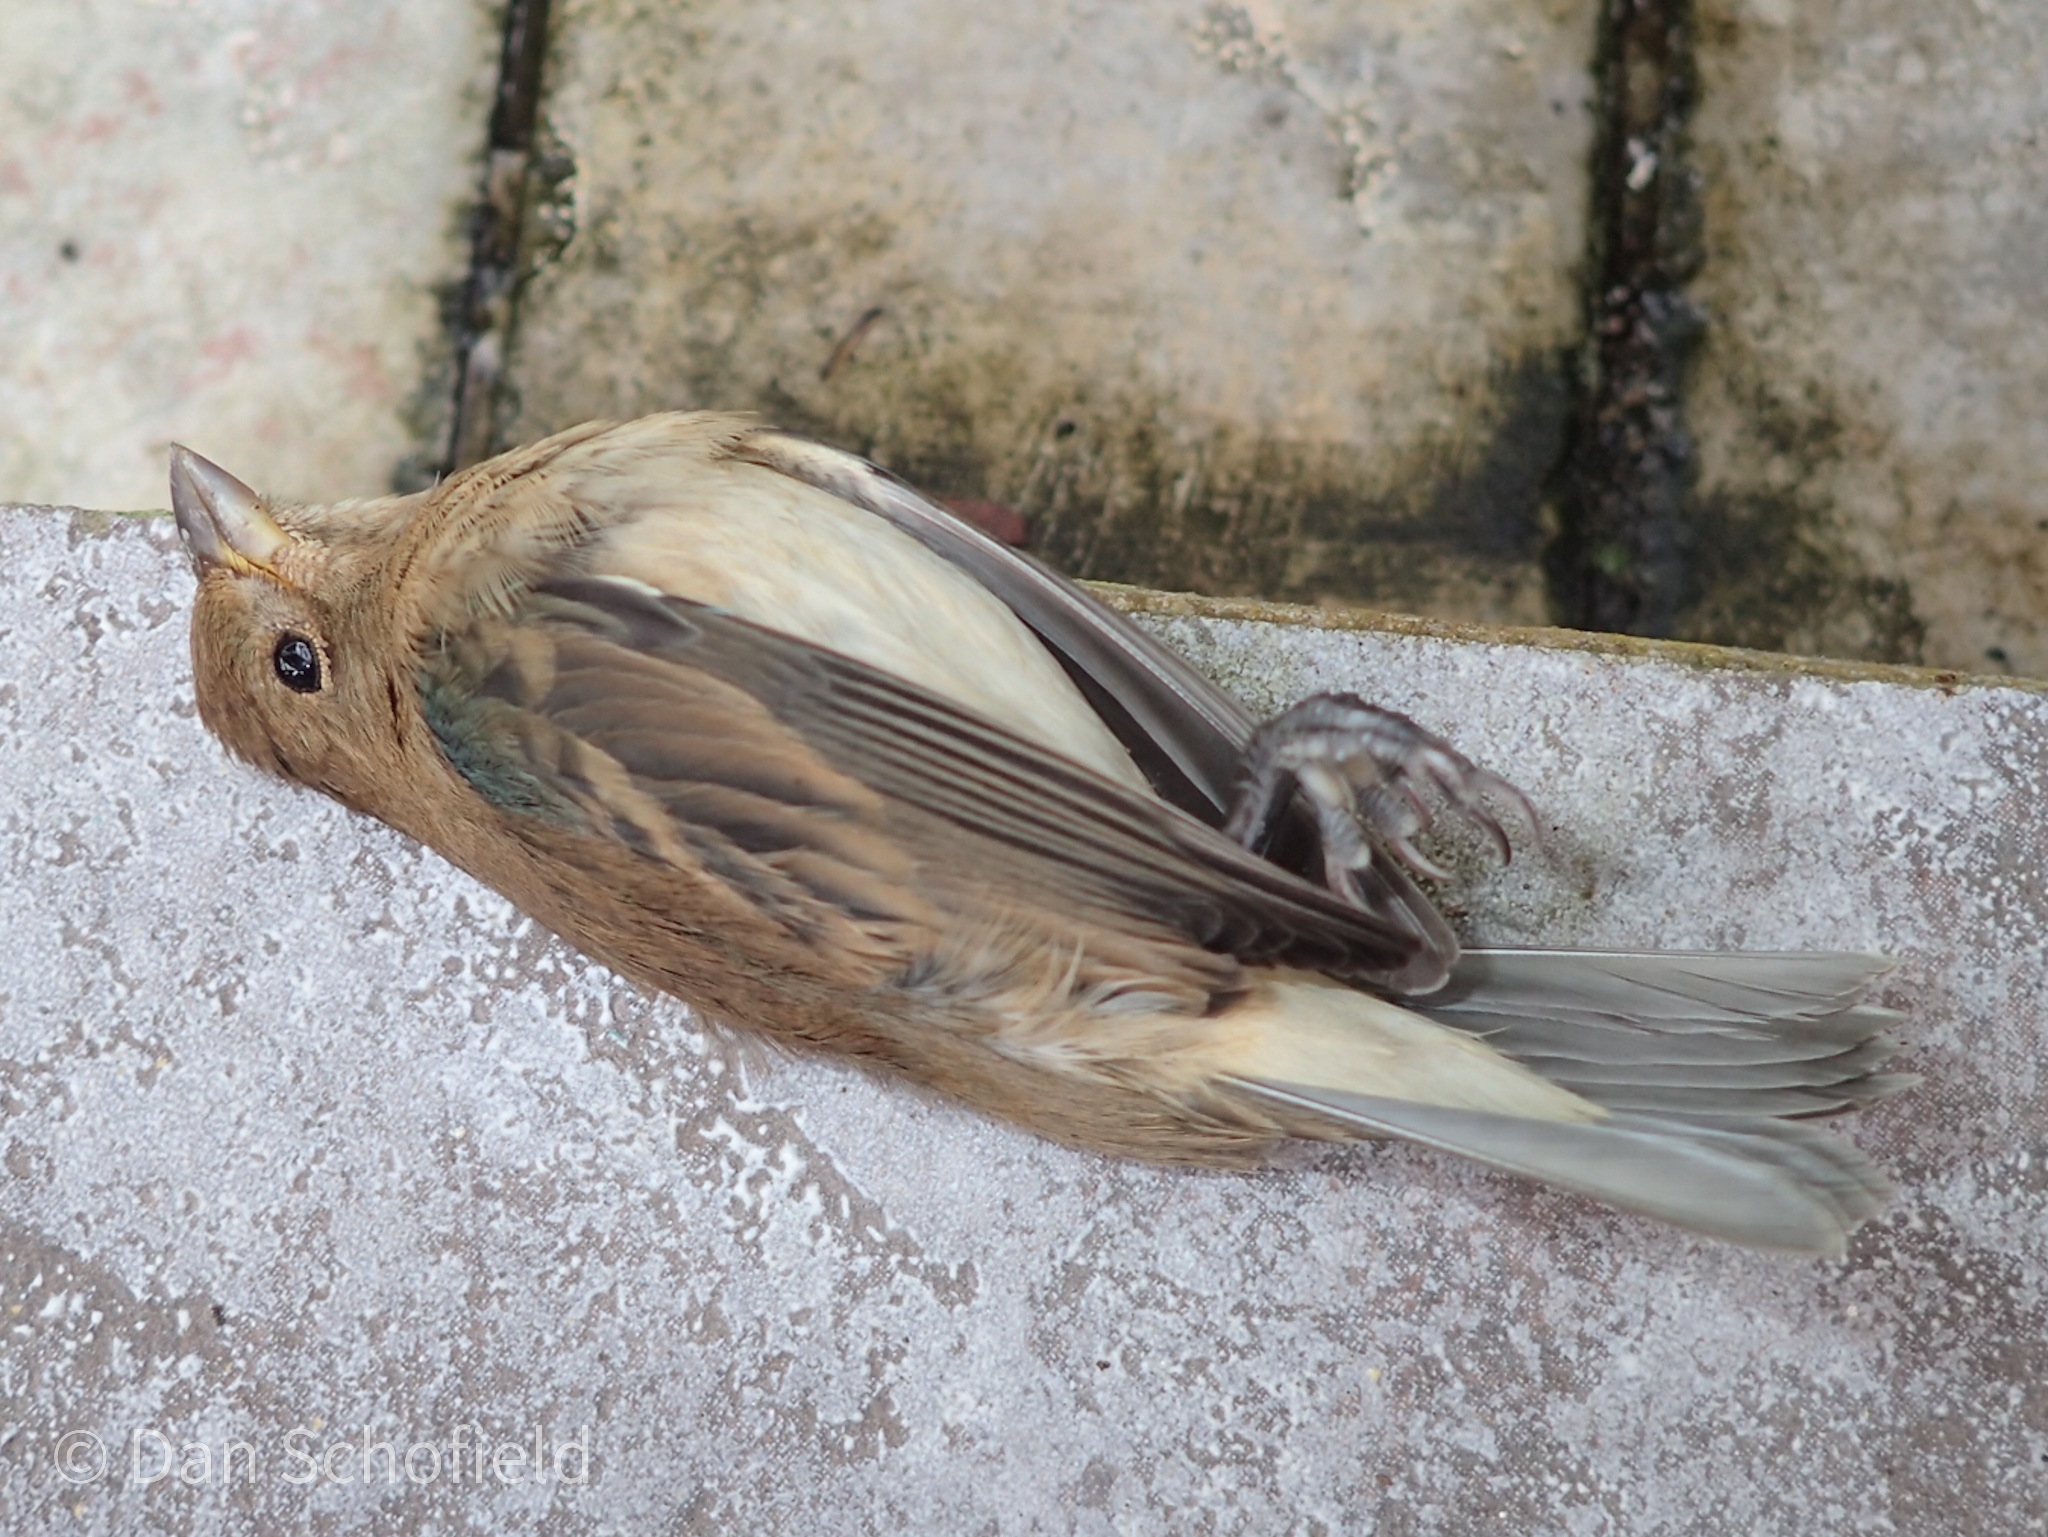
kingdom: Animalia
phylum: Chordata
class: Aves
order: Passeriformes
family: Cardinalidae
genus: Passerina
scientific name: Passerina cyanea
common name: Indigo bunting
